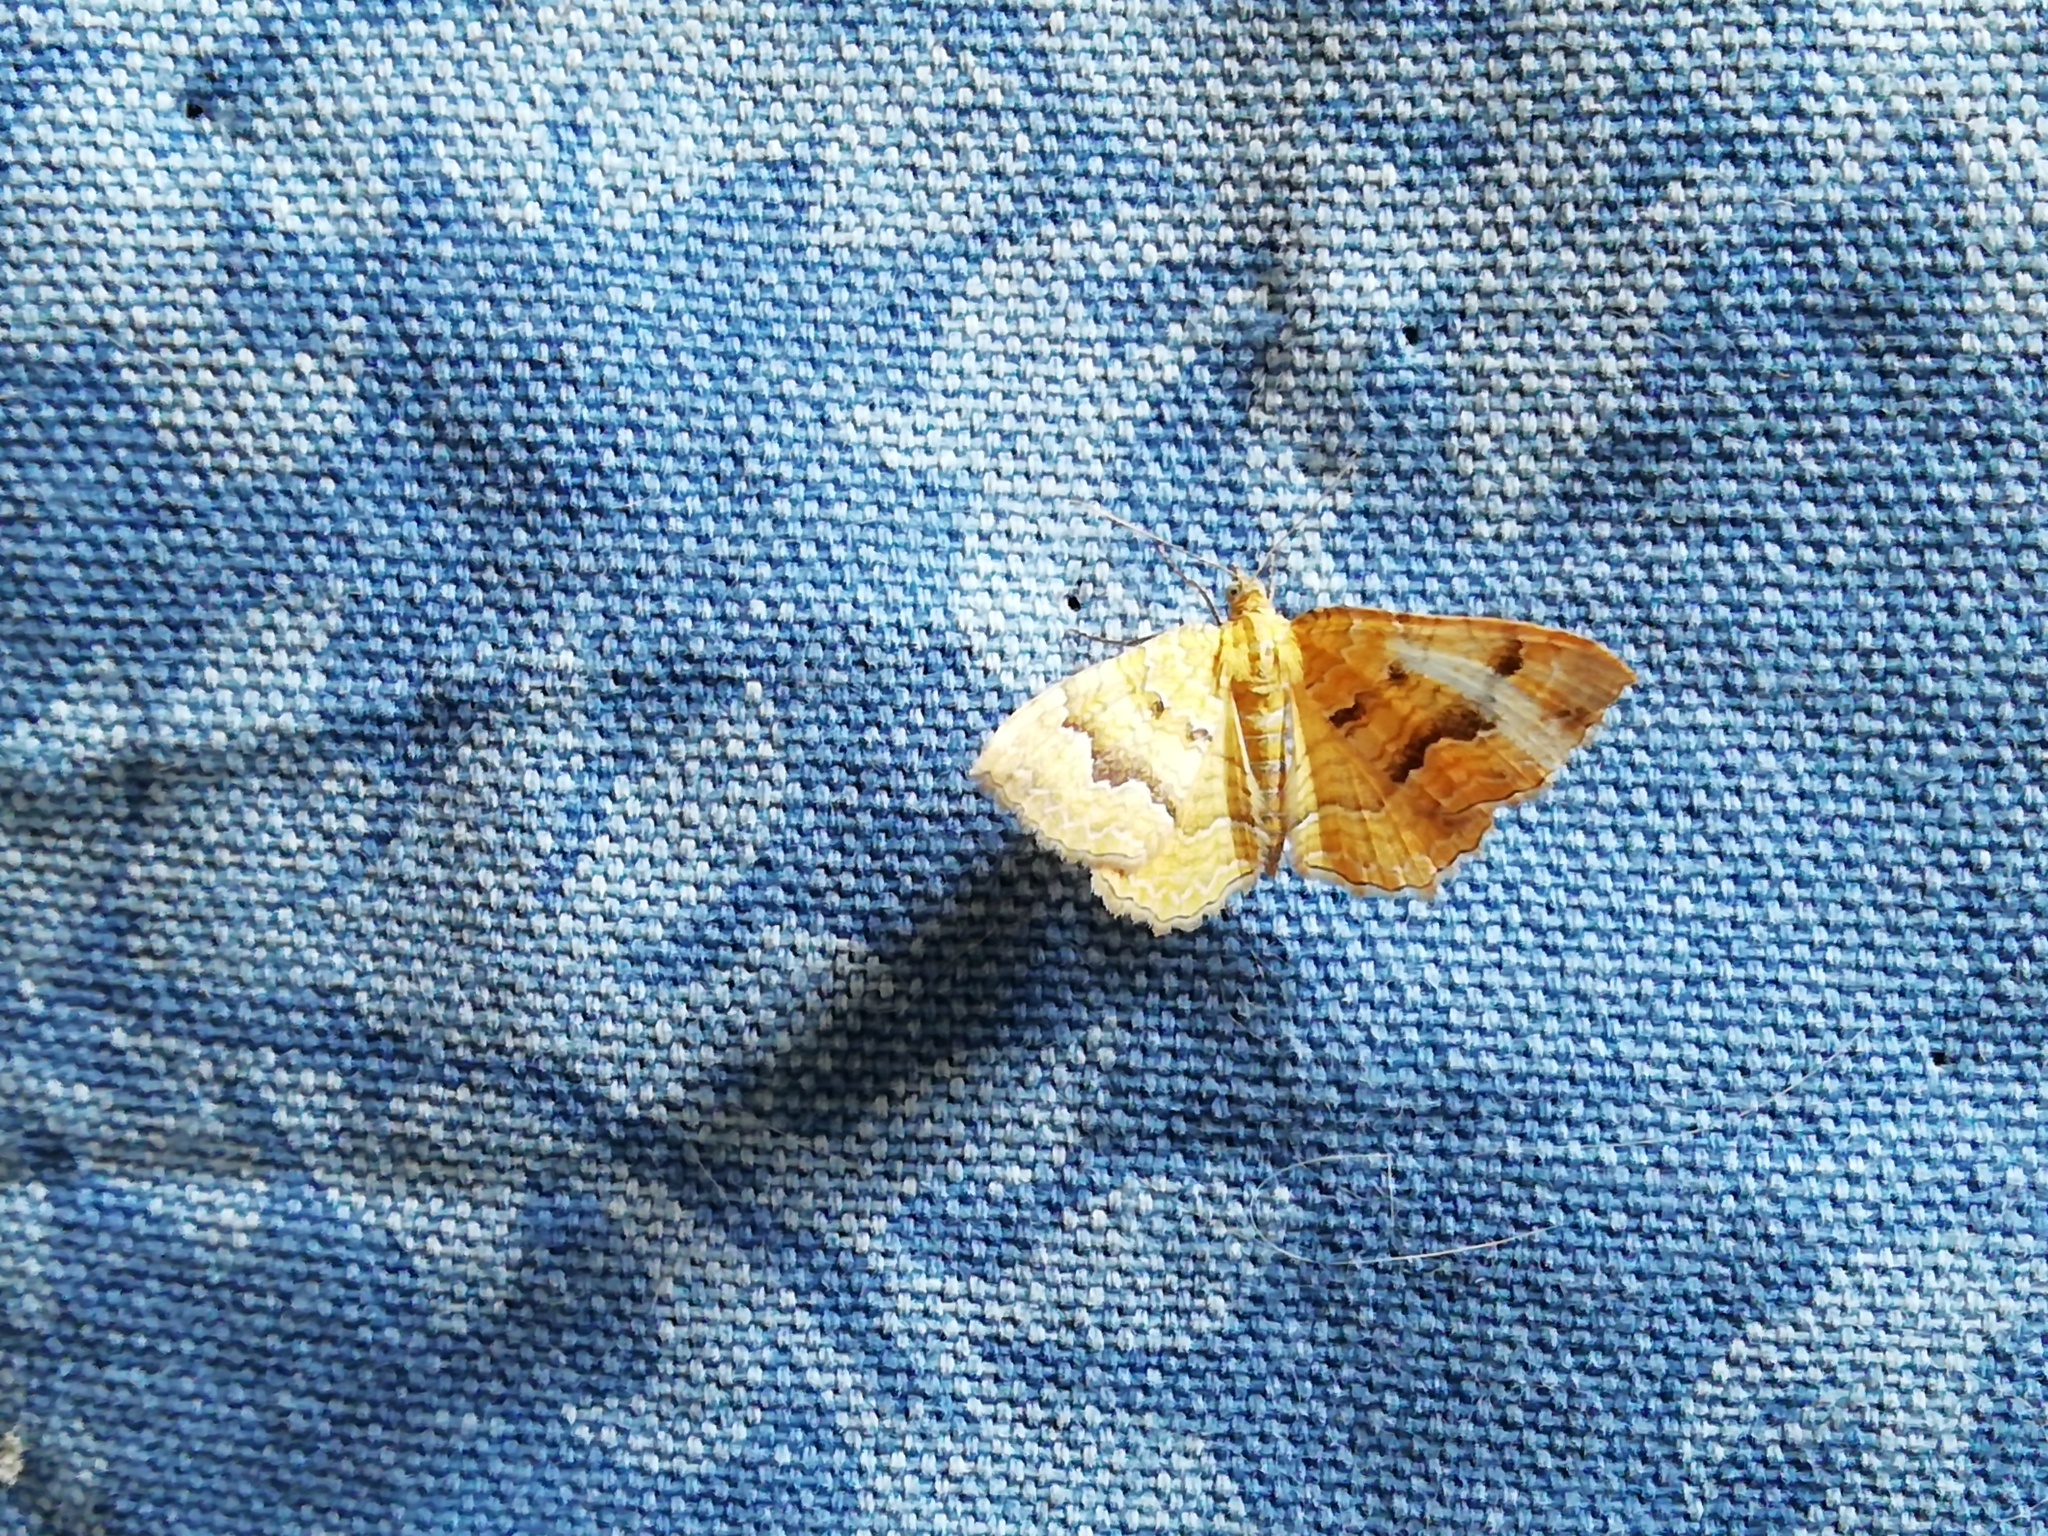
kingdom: Animalia
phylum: Arthropoda
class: Insecta
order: Lepidoptera
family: Geometridae
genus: Camptogramma
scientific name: Camptogramma bilineata
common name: Yellow shell
